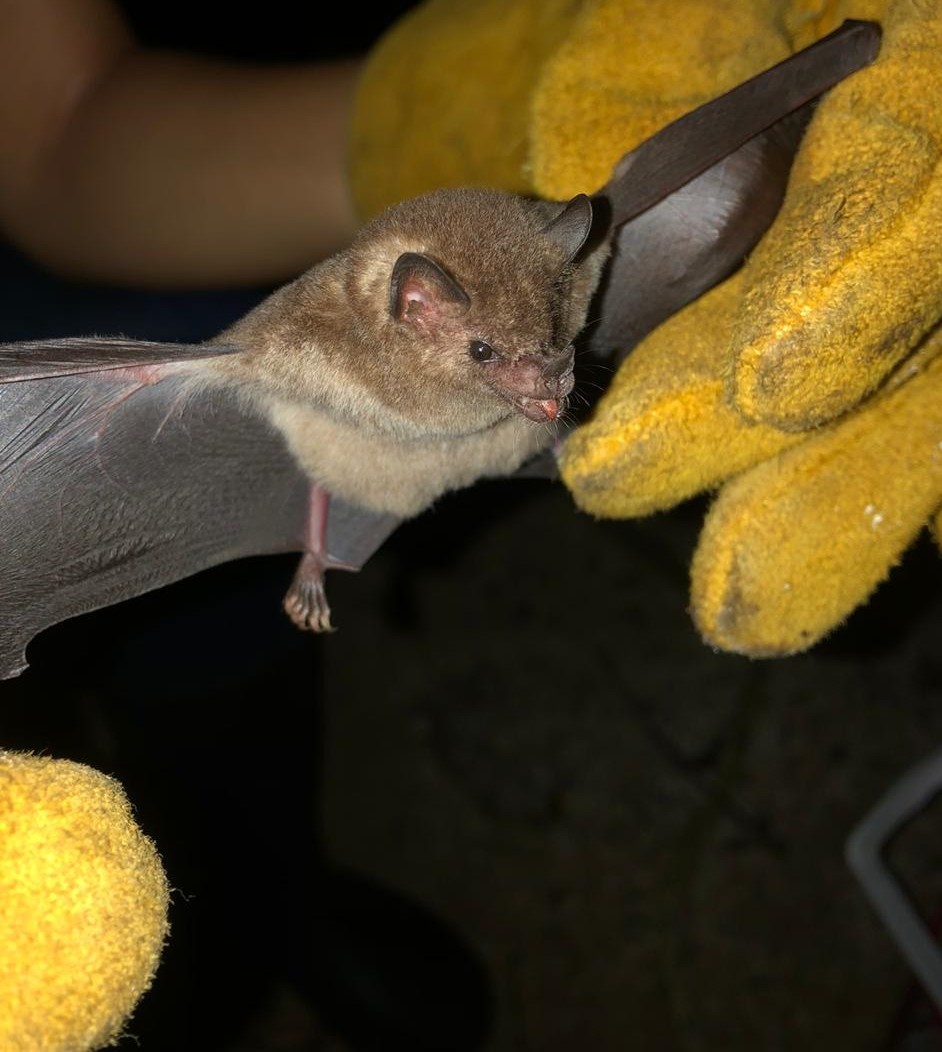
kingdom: Animalia
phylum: Chordata
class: Mammalia
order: Chiroptera
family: Phyllostomidae
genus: Glossophaga
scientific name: Glossophaga soricina
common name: Pallas's long-tongued bat
